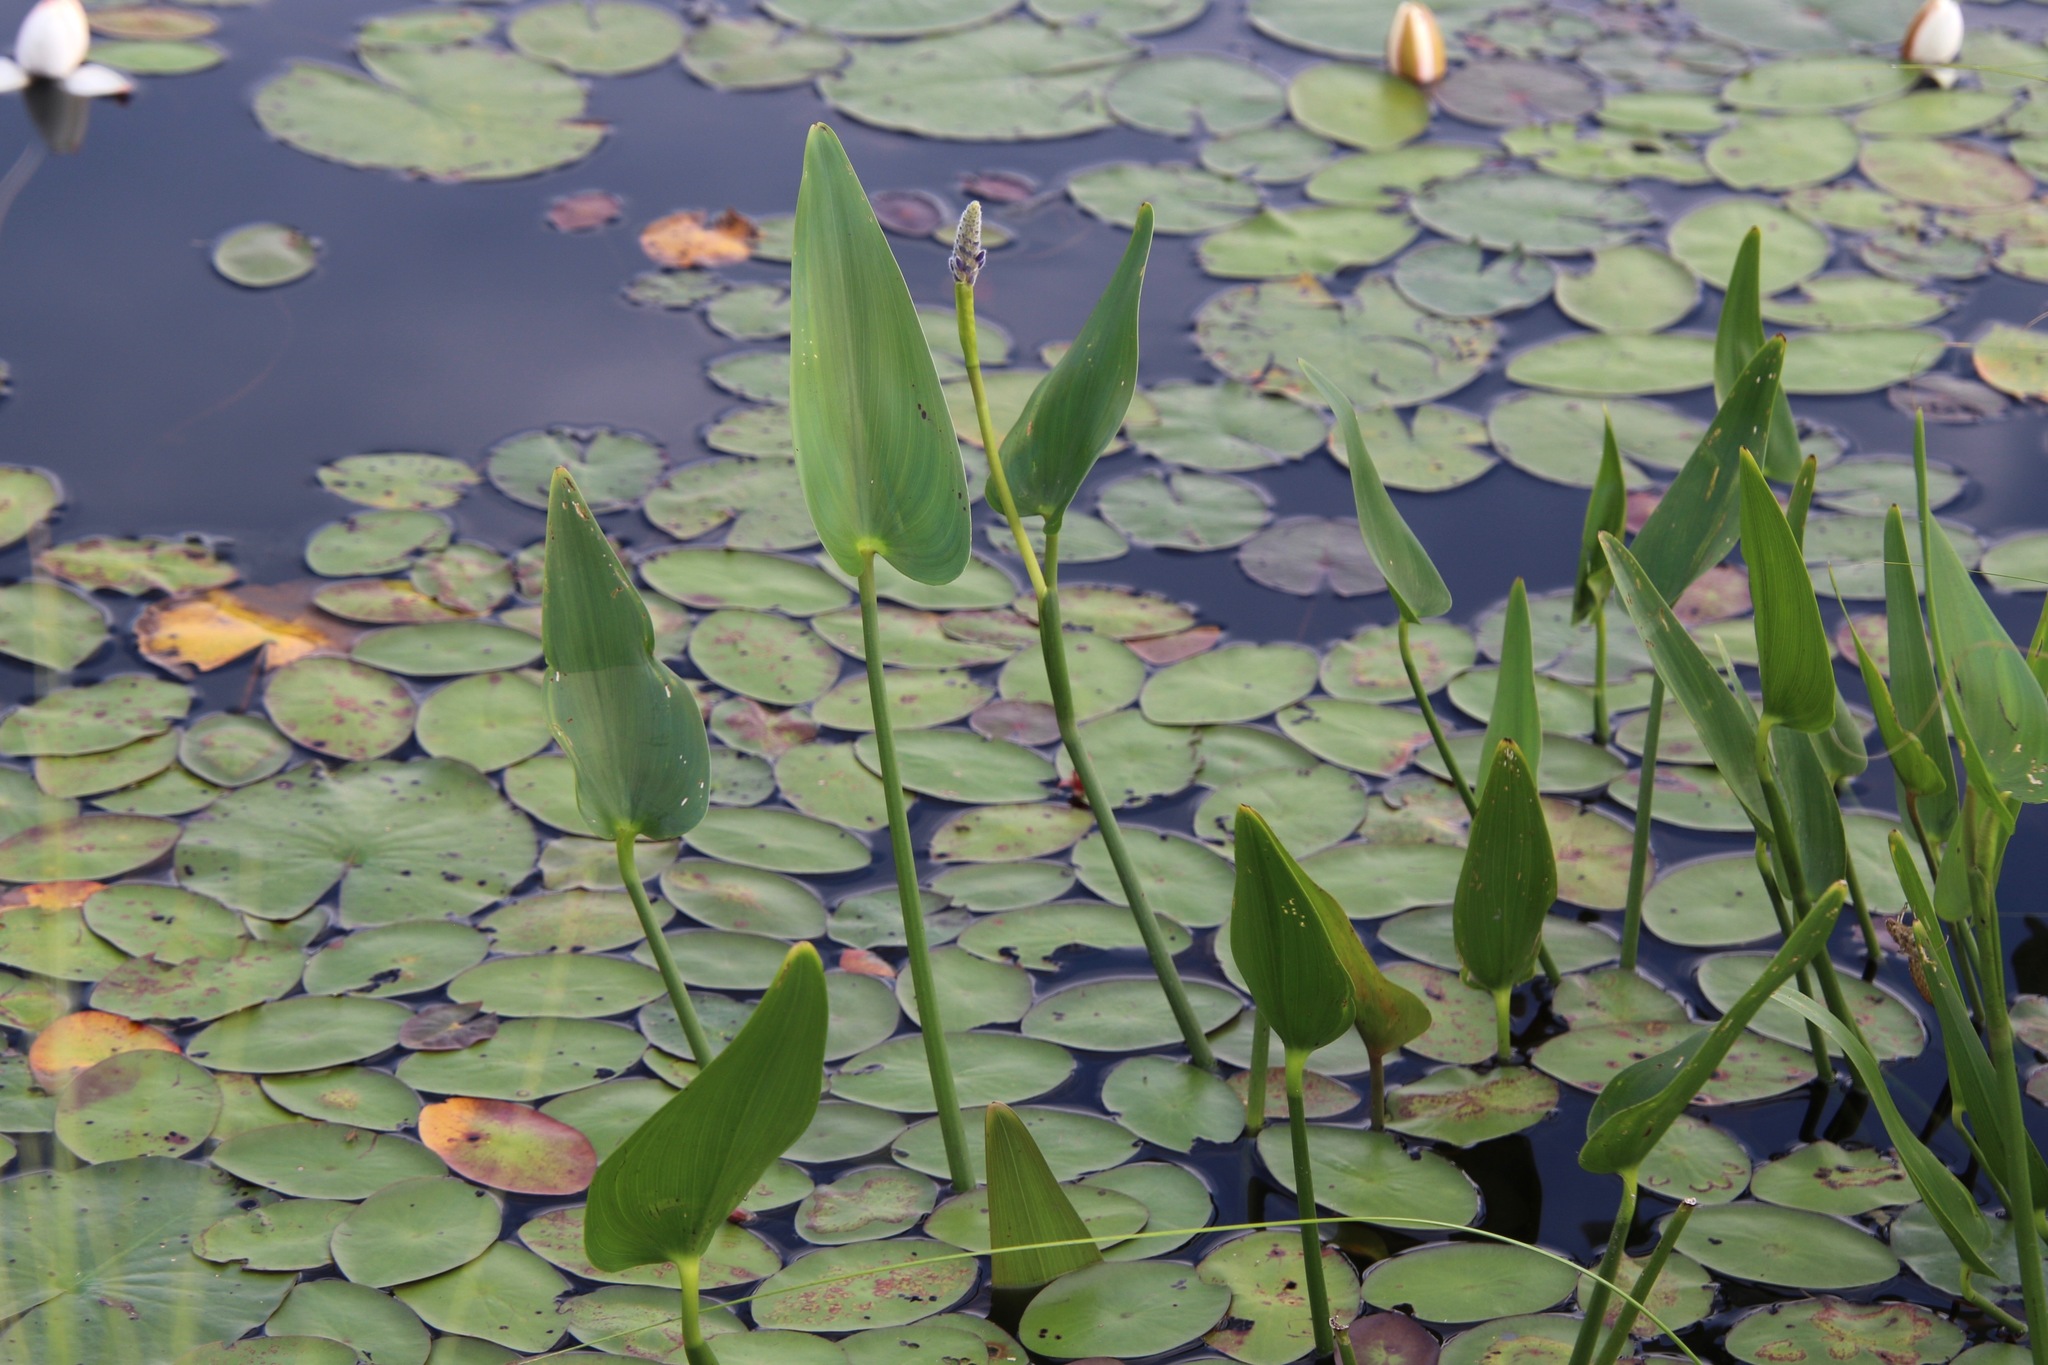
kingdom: Plantae
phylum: Tracheophyta
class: Liliopsida
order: Commelinales
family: Pontederiaceae
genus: Pontederia
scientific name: Pontederia cordata
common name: Pickerelweed
